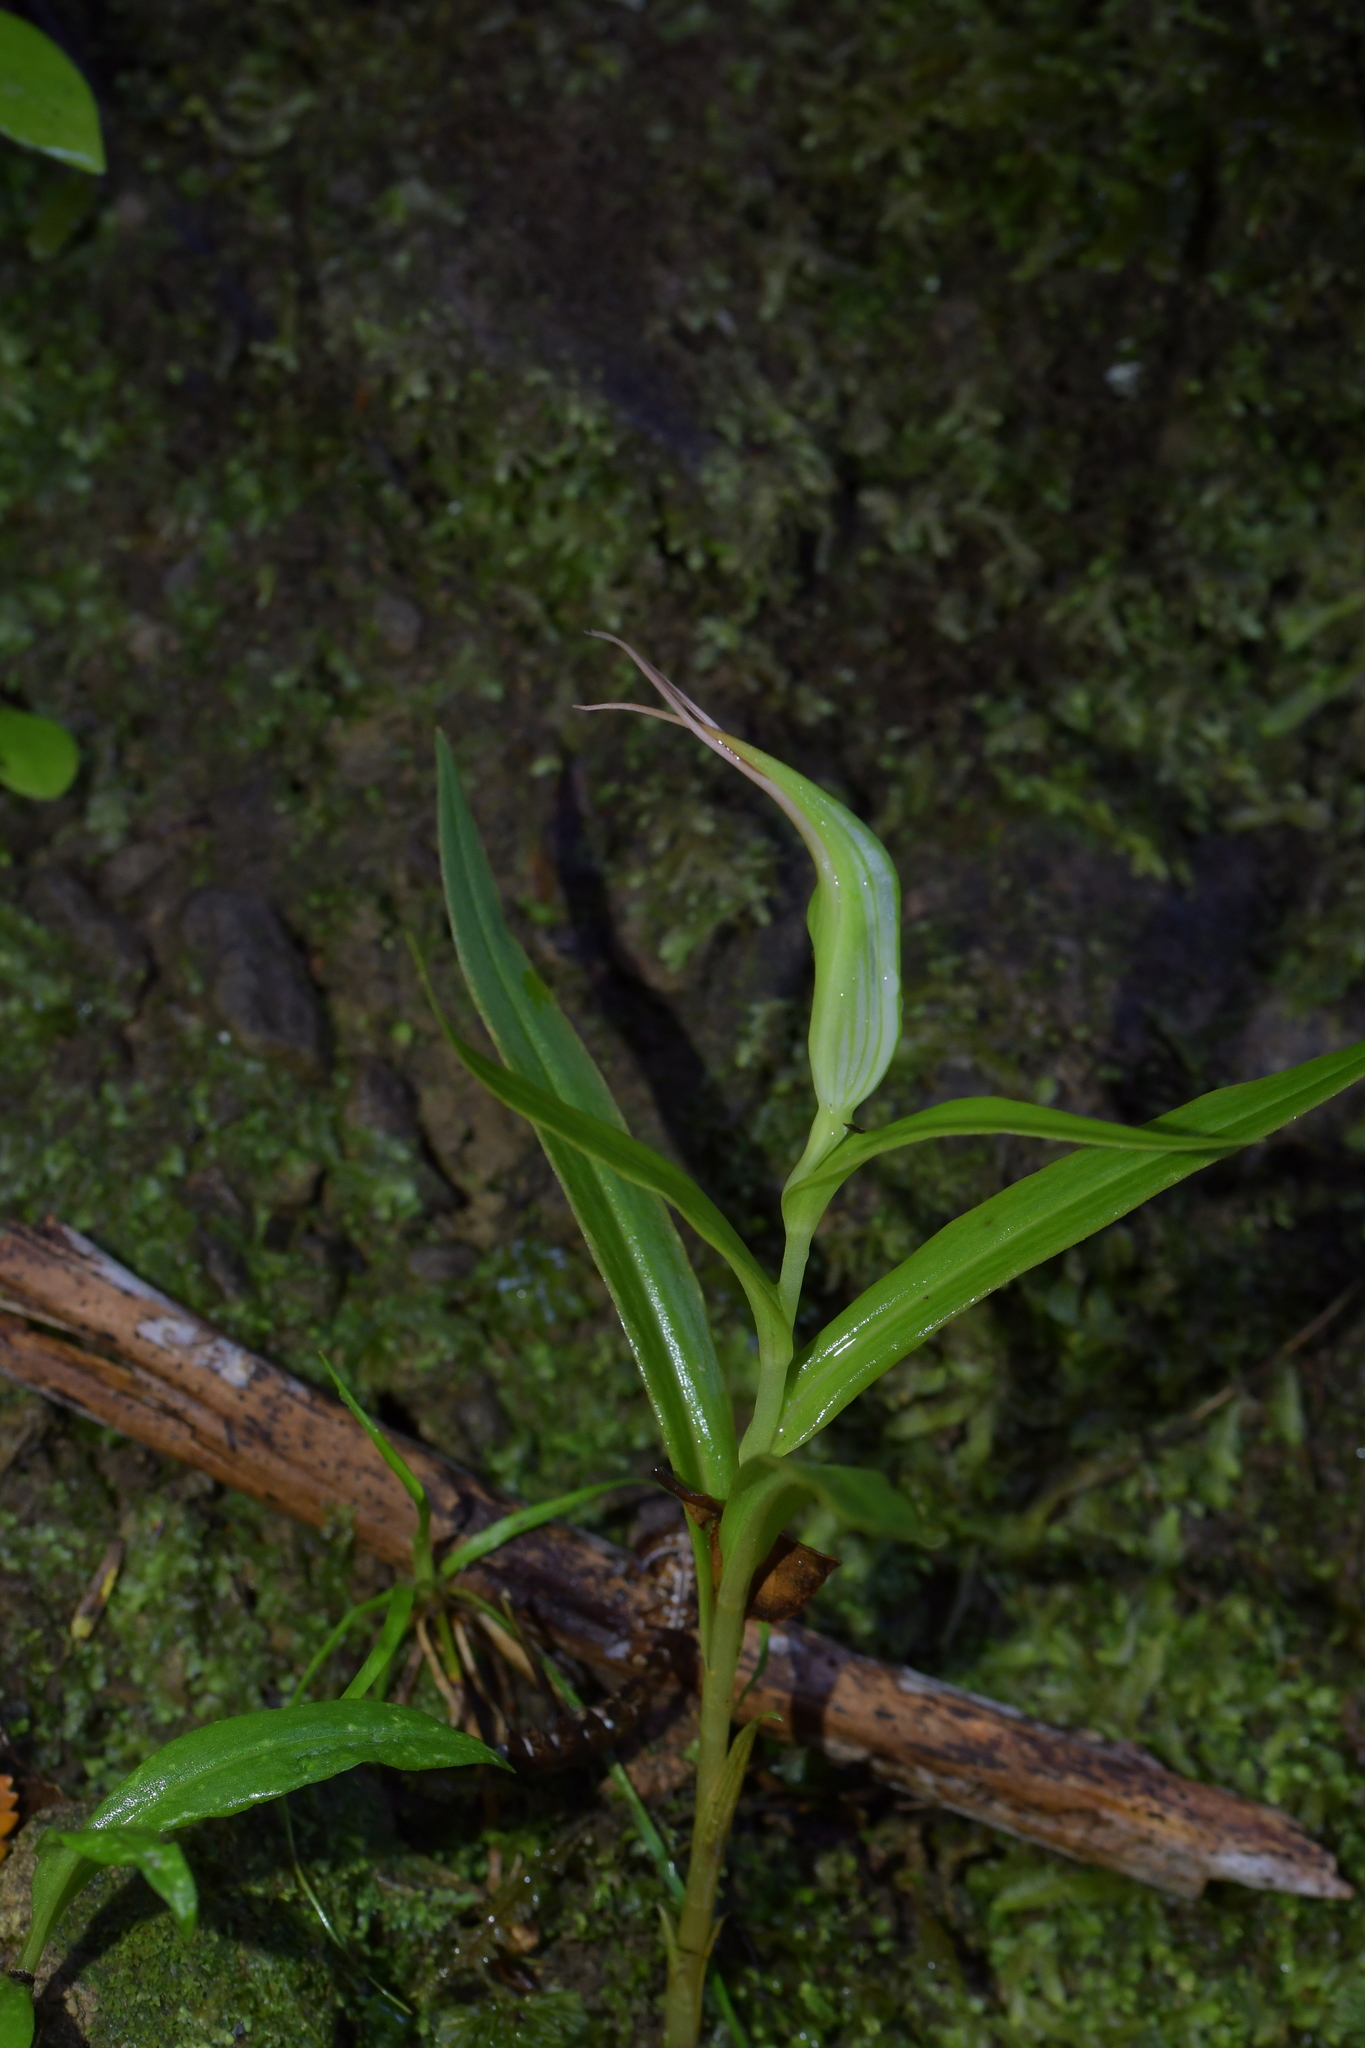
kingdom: Plantae
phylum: Tracheophyta
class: Liliopsida
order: Asparagales
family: Orchidaceae
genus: Pterostylis
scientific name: Pterostylis banksii
